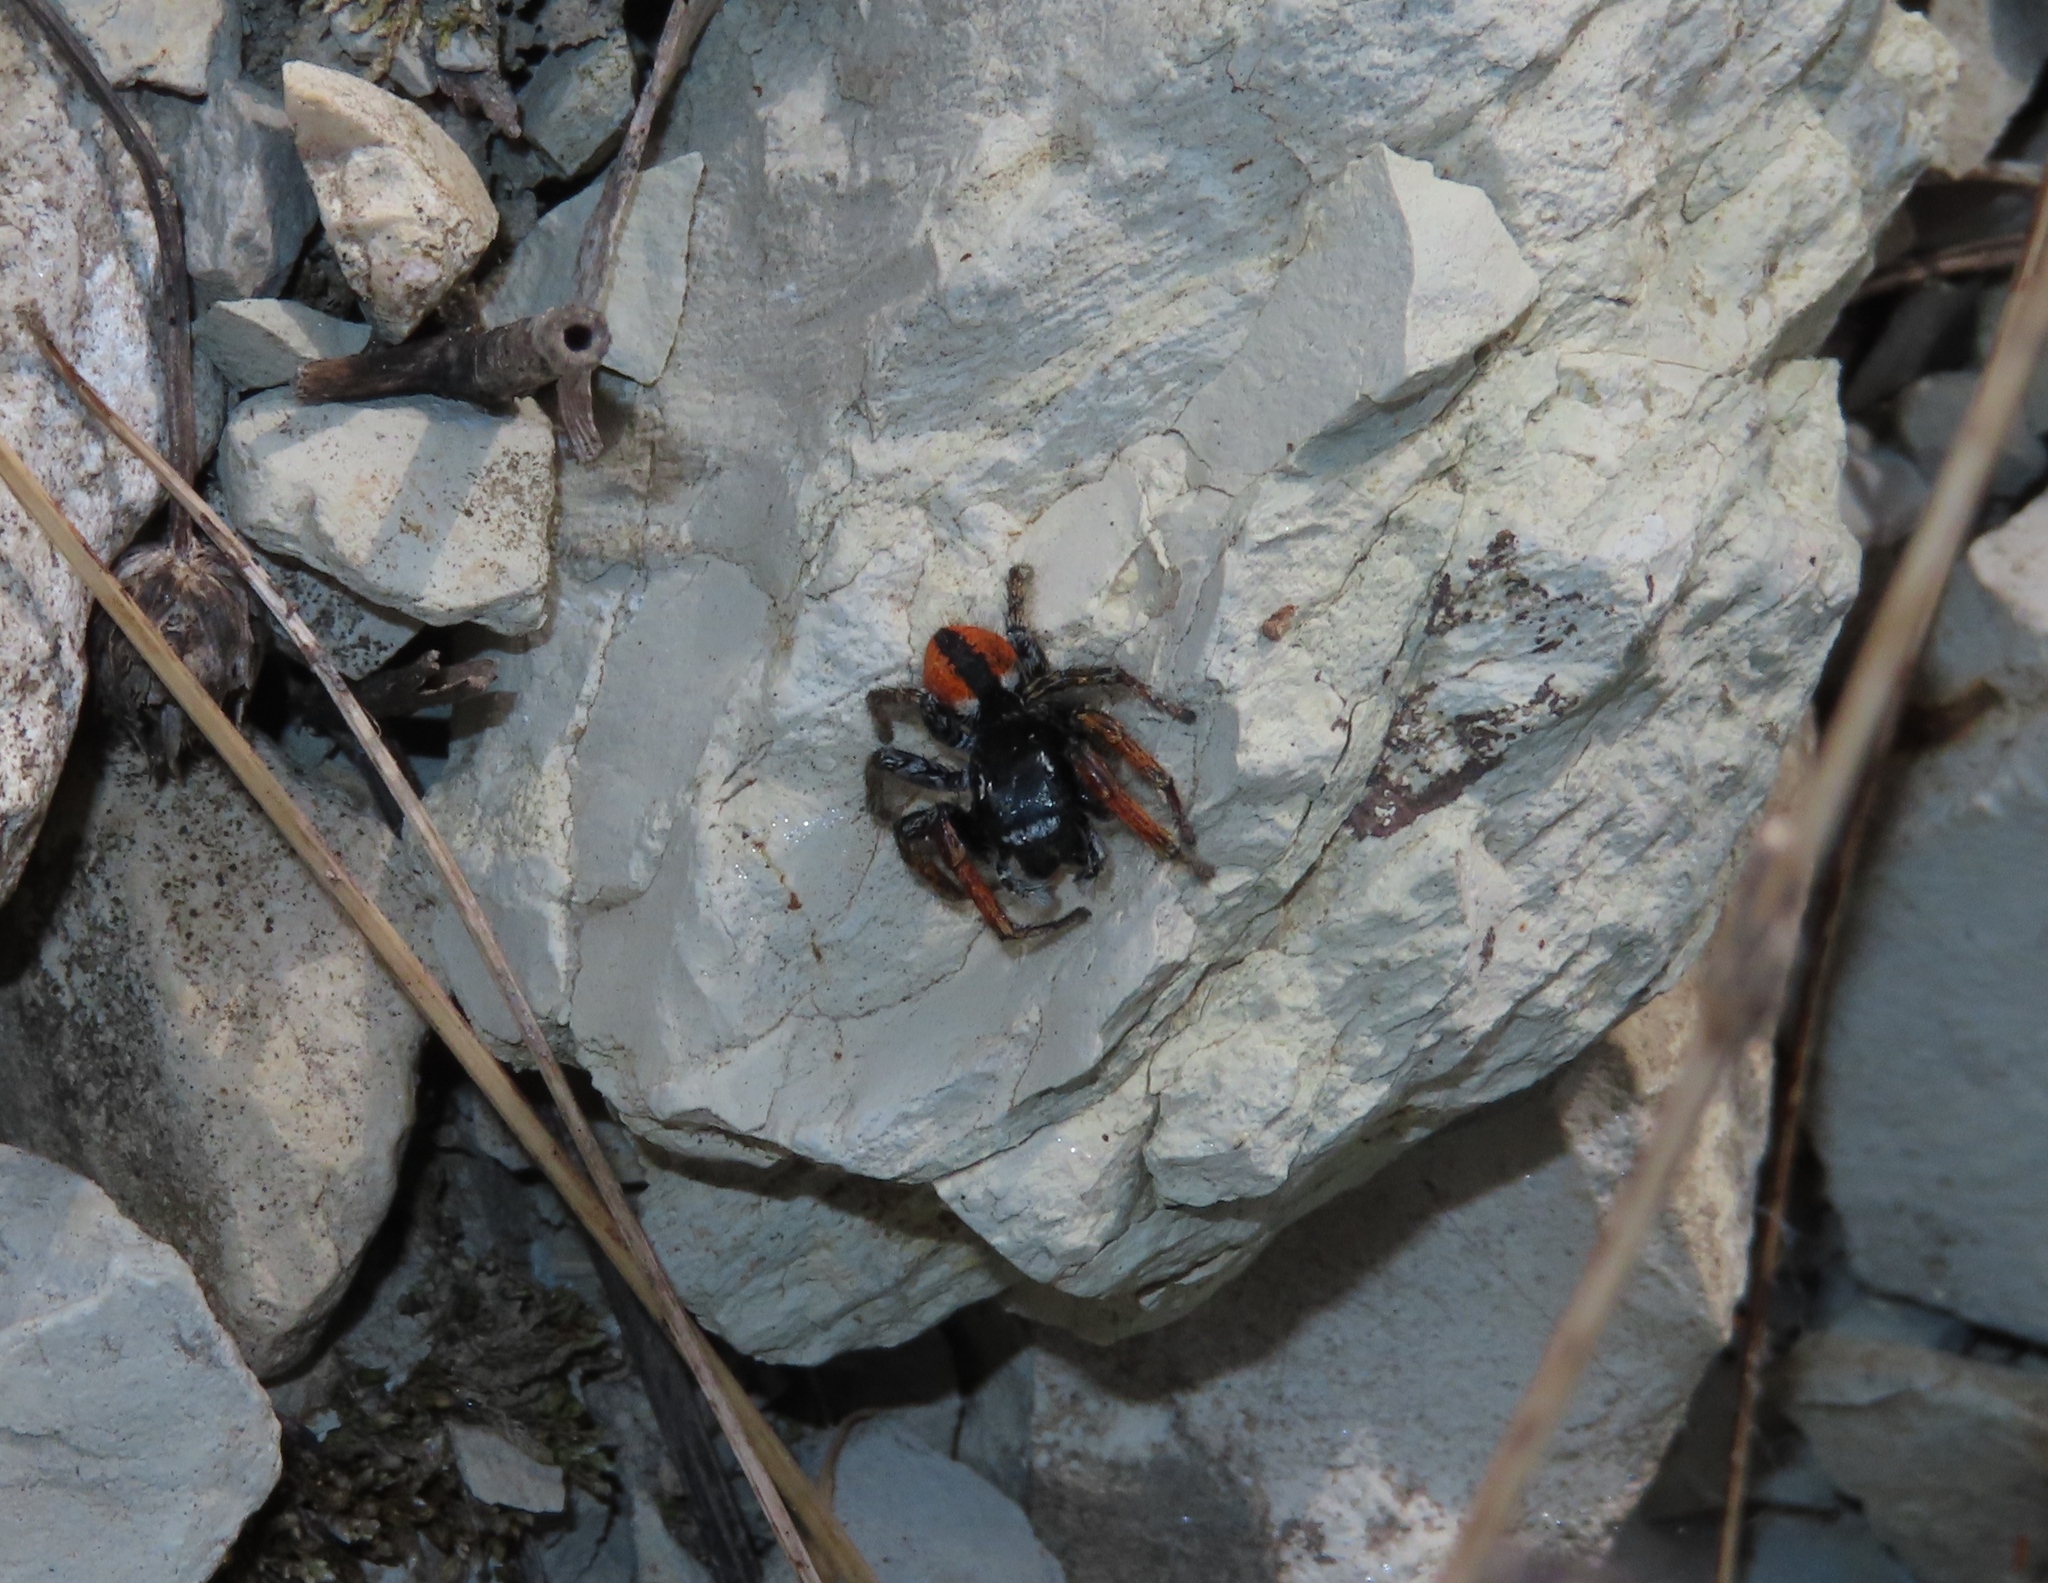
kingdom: Animalia
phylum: Arthropoda
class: Arachnida
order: Araneae
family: Salticidae
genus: Philaeus
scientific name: Philaeus chrysops
